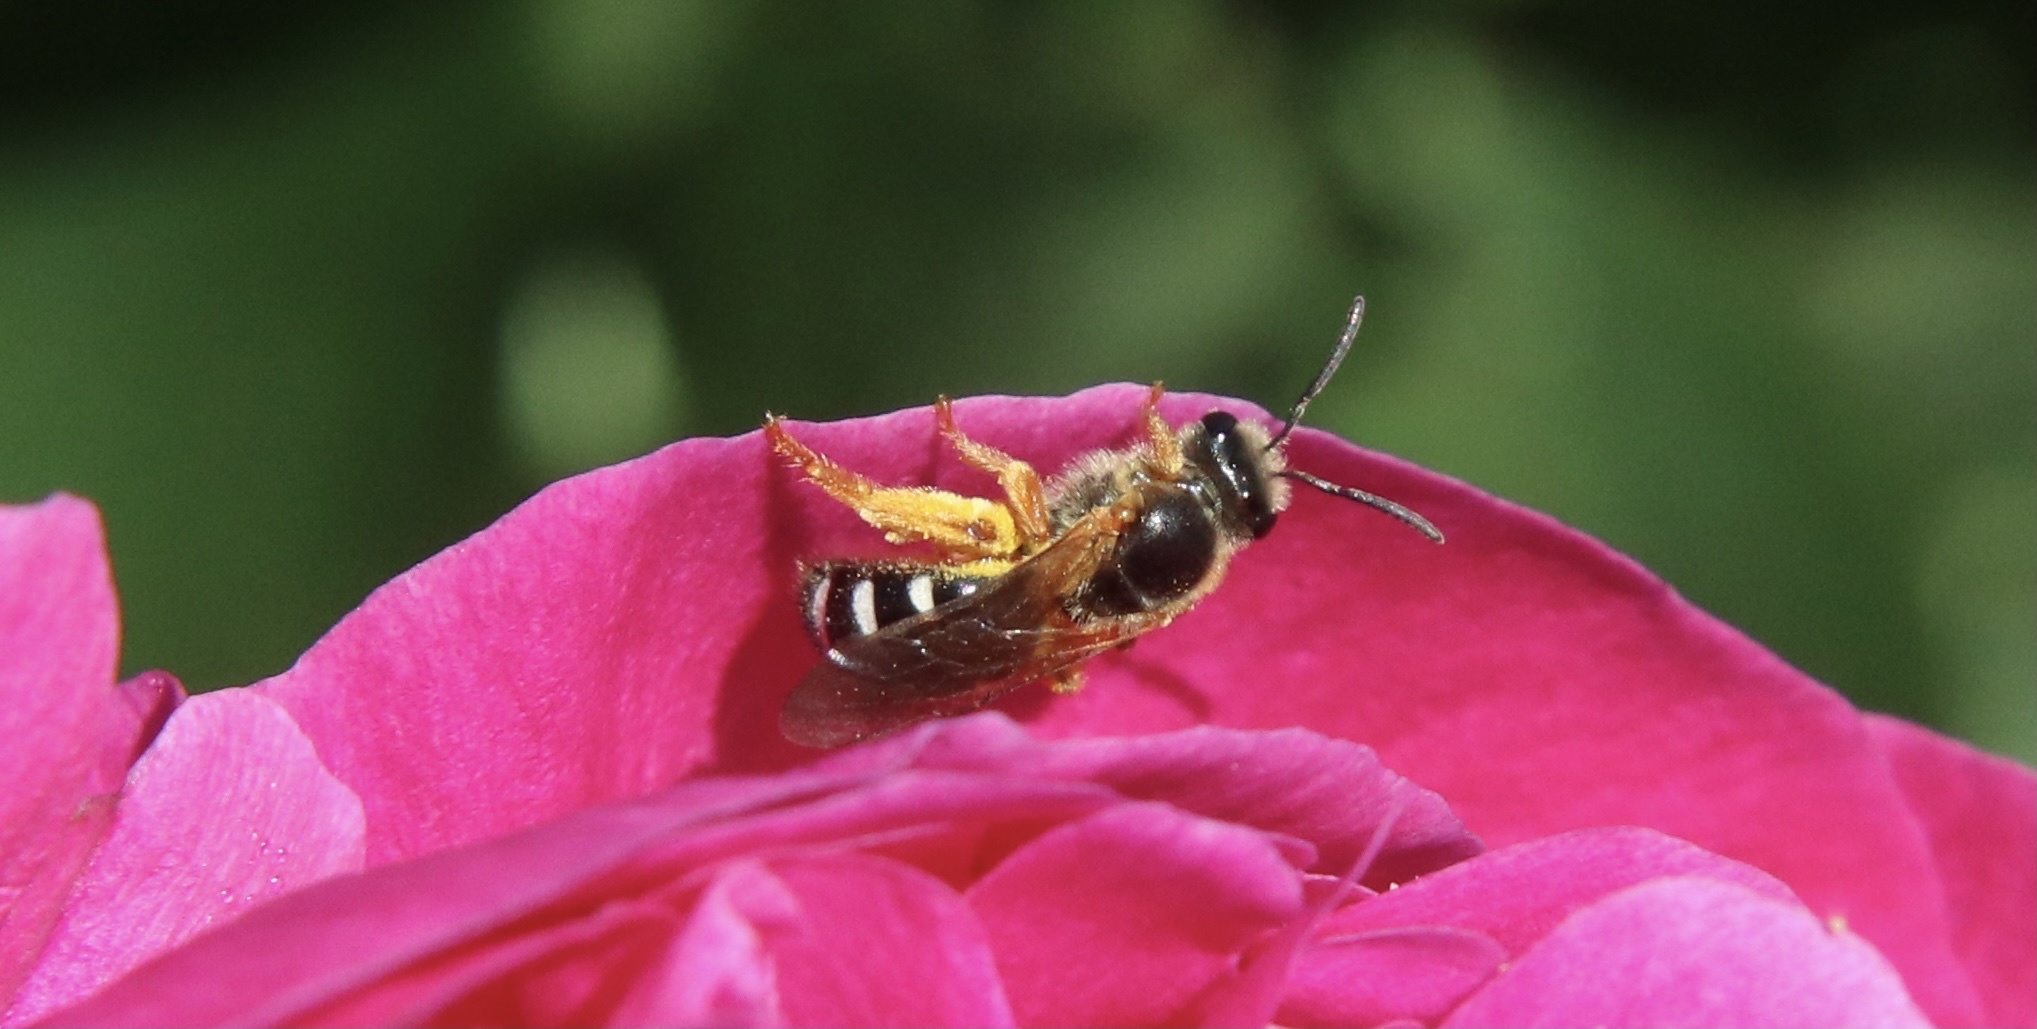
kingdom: Animalia
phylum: Arthropoda
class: Insecta
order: Hymenoptera
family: Halictidae
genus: Ruizantheda
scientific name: Ruizantheda proxima
